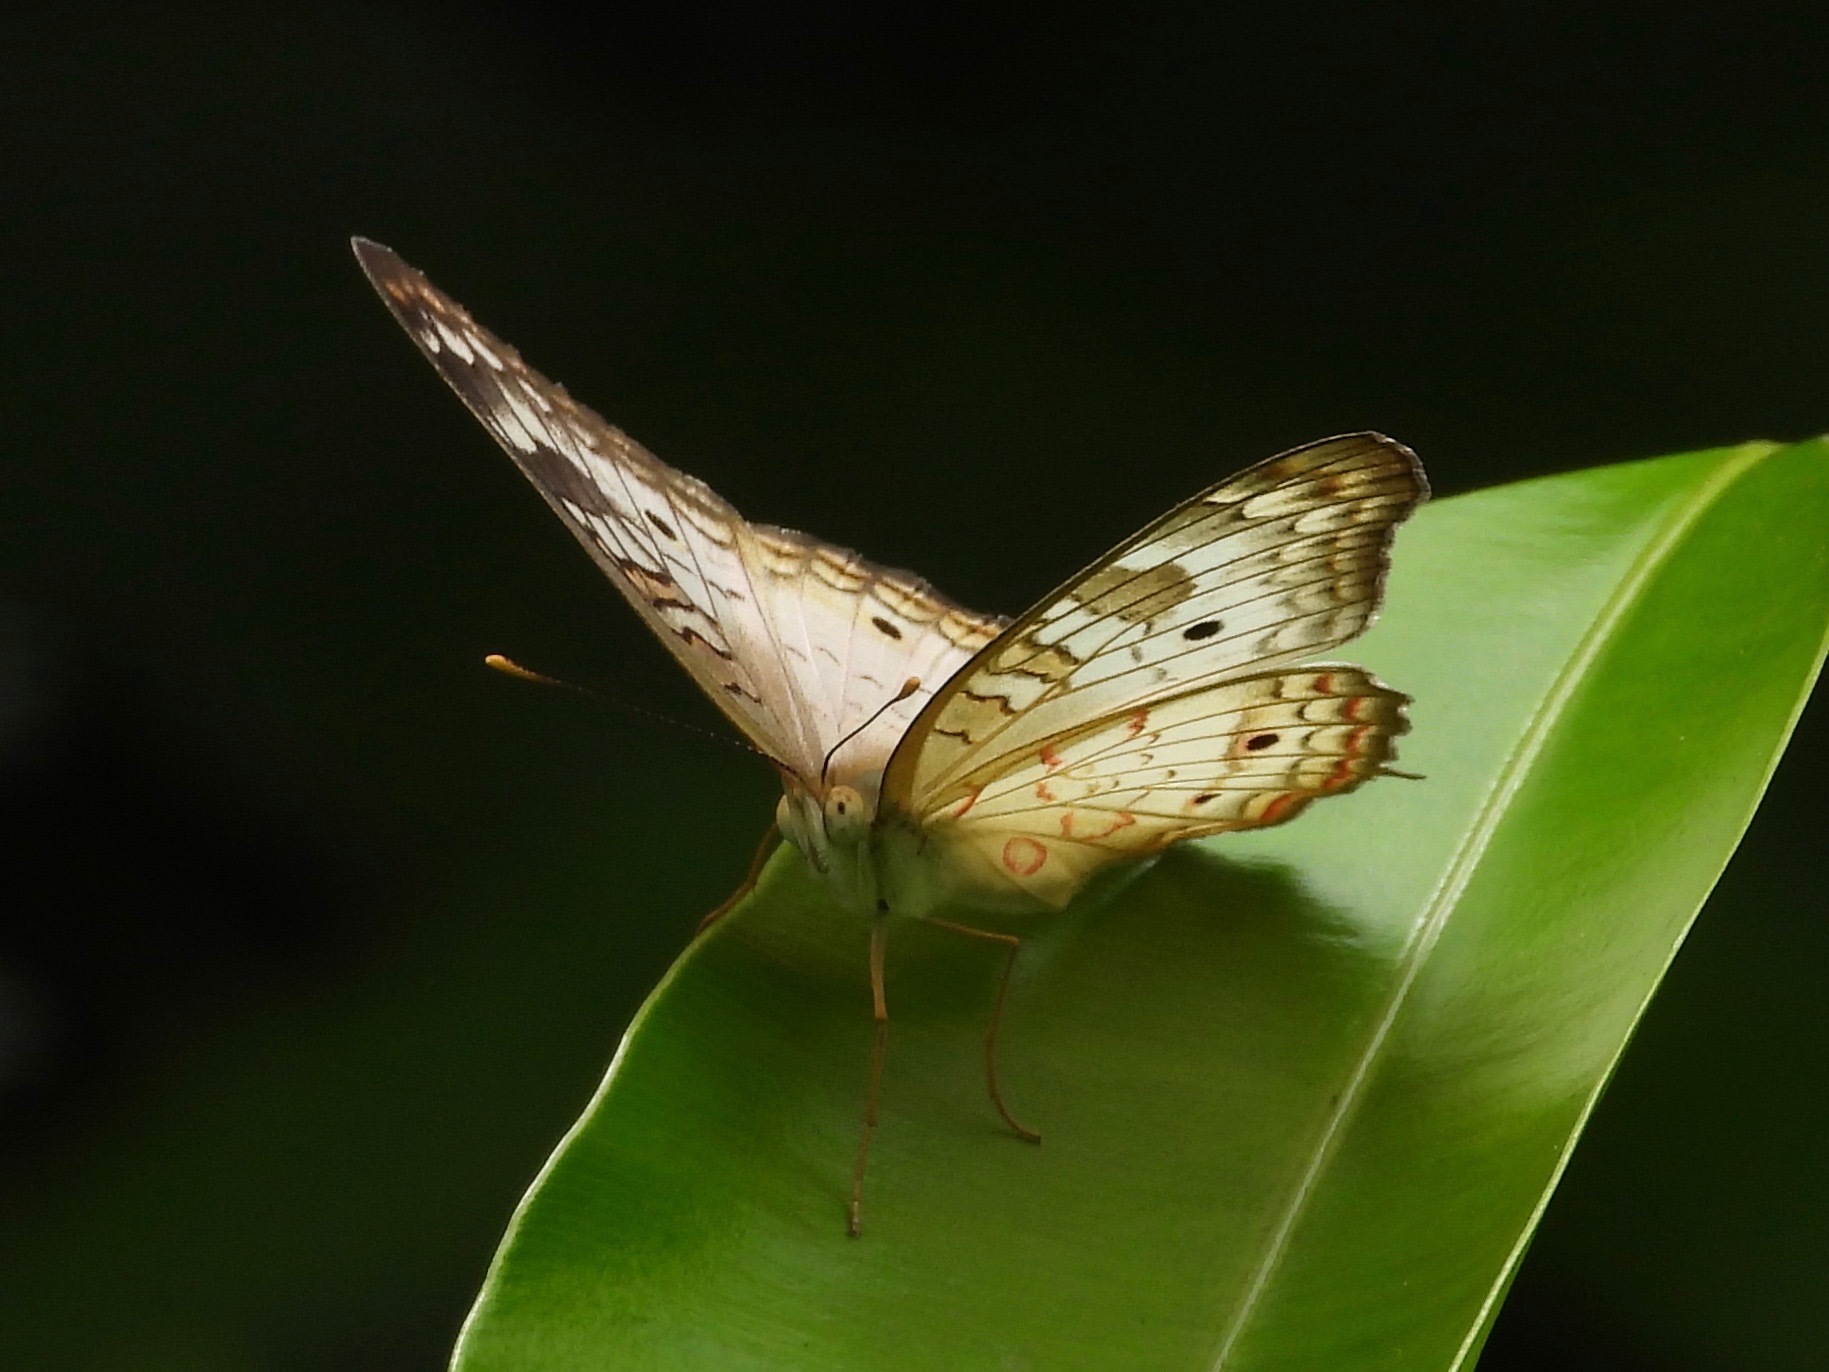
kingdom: Animalia
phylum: Arthropoda
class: Insecta
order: Lepidoptera
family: Nymphalidae
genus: Anartia
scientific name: Anartia jatrophae
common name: White peacock
